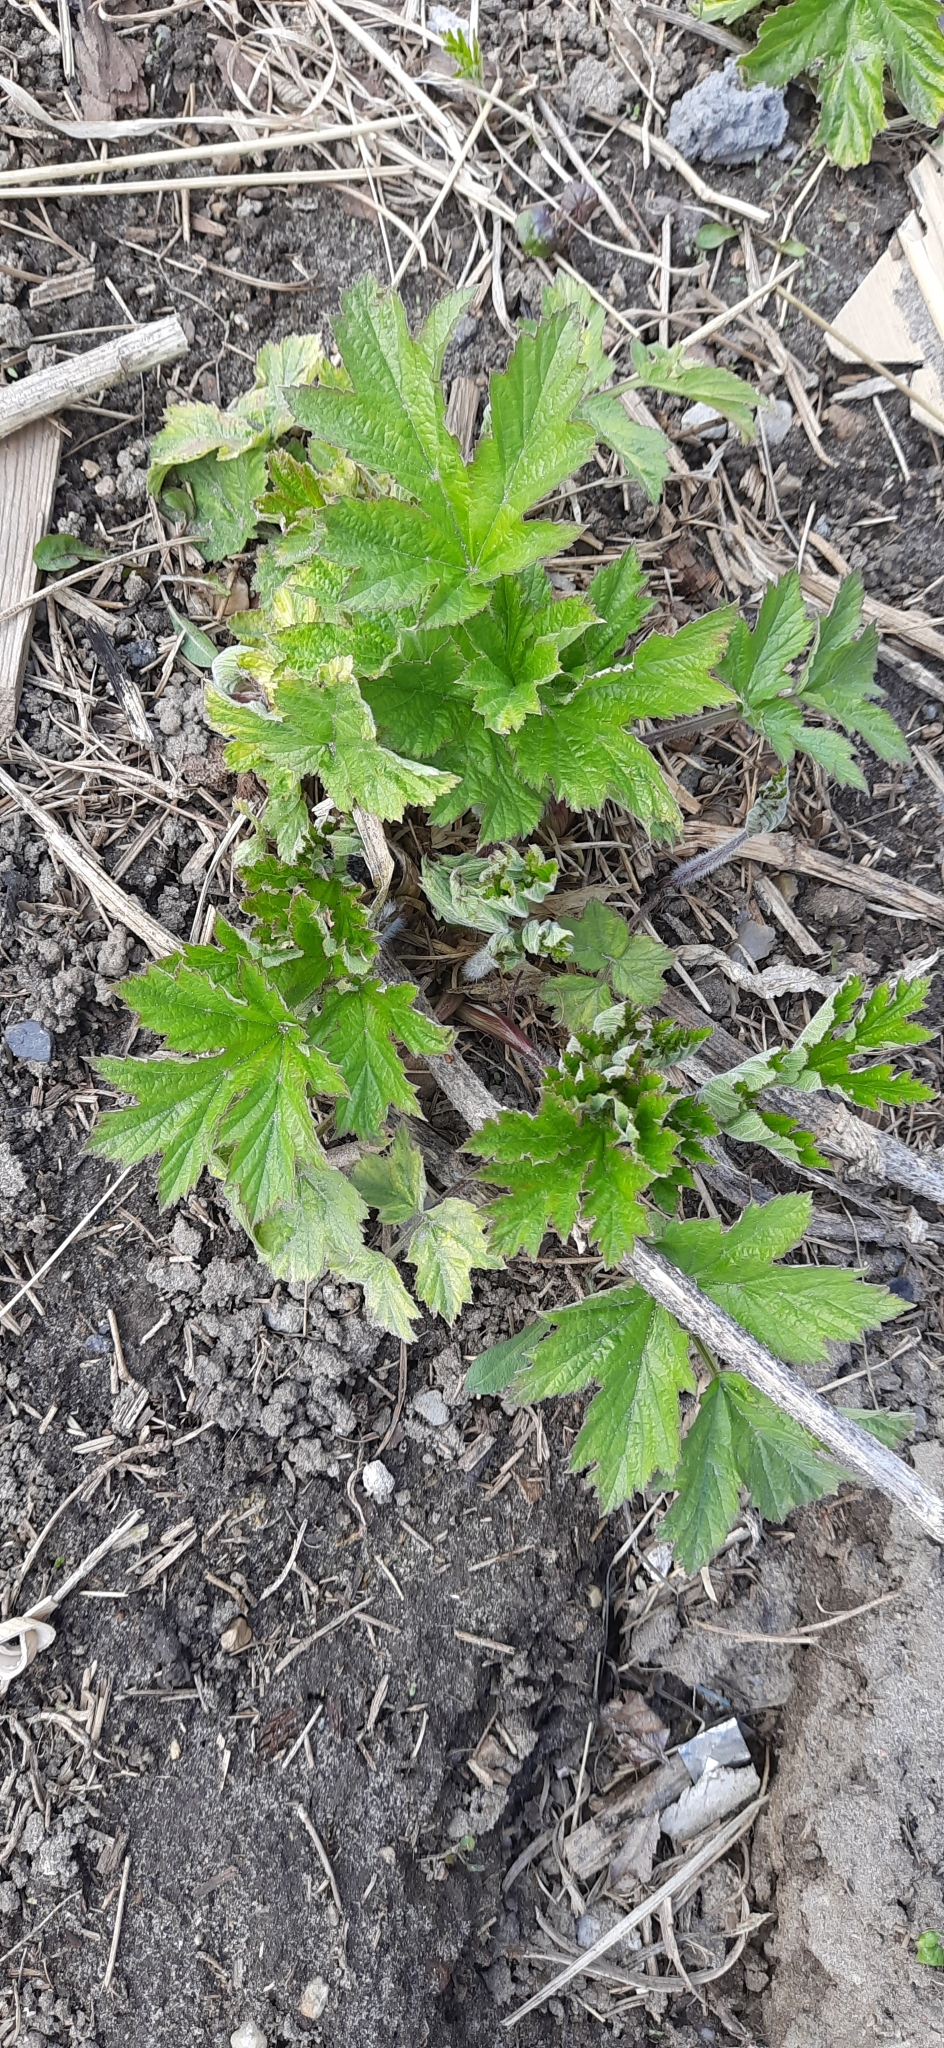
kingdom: Plantae
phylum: Tracheophyta
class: Magnoliopsida
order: Apiales
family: Apiaceae
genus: Heracleum
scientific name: Heracleum sphondylium
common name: Hogweed
